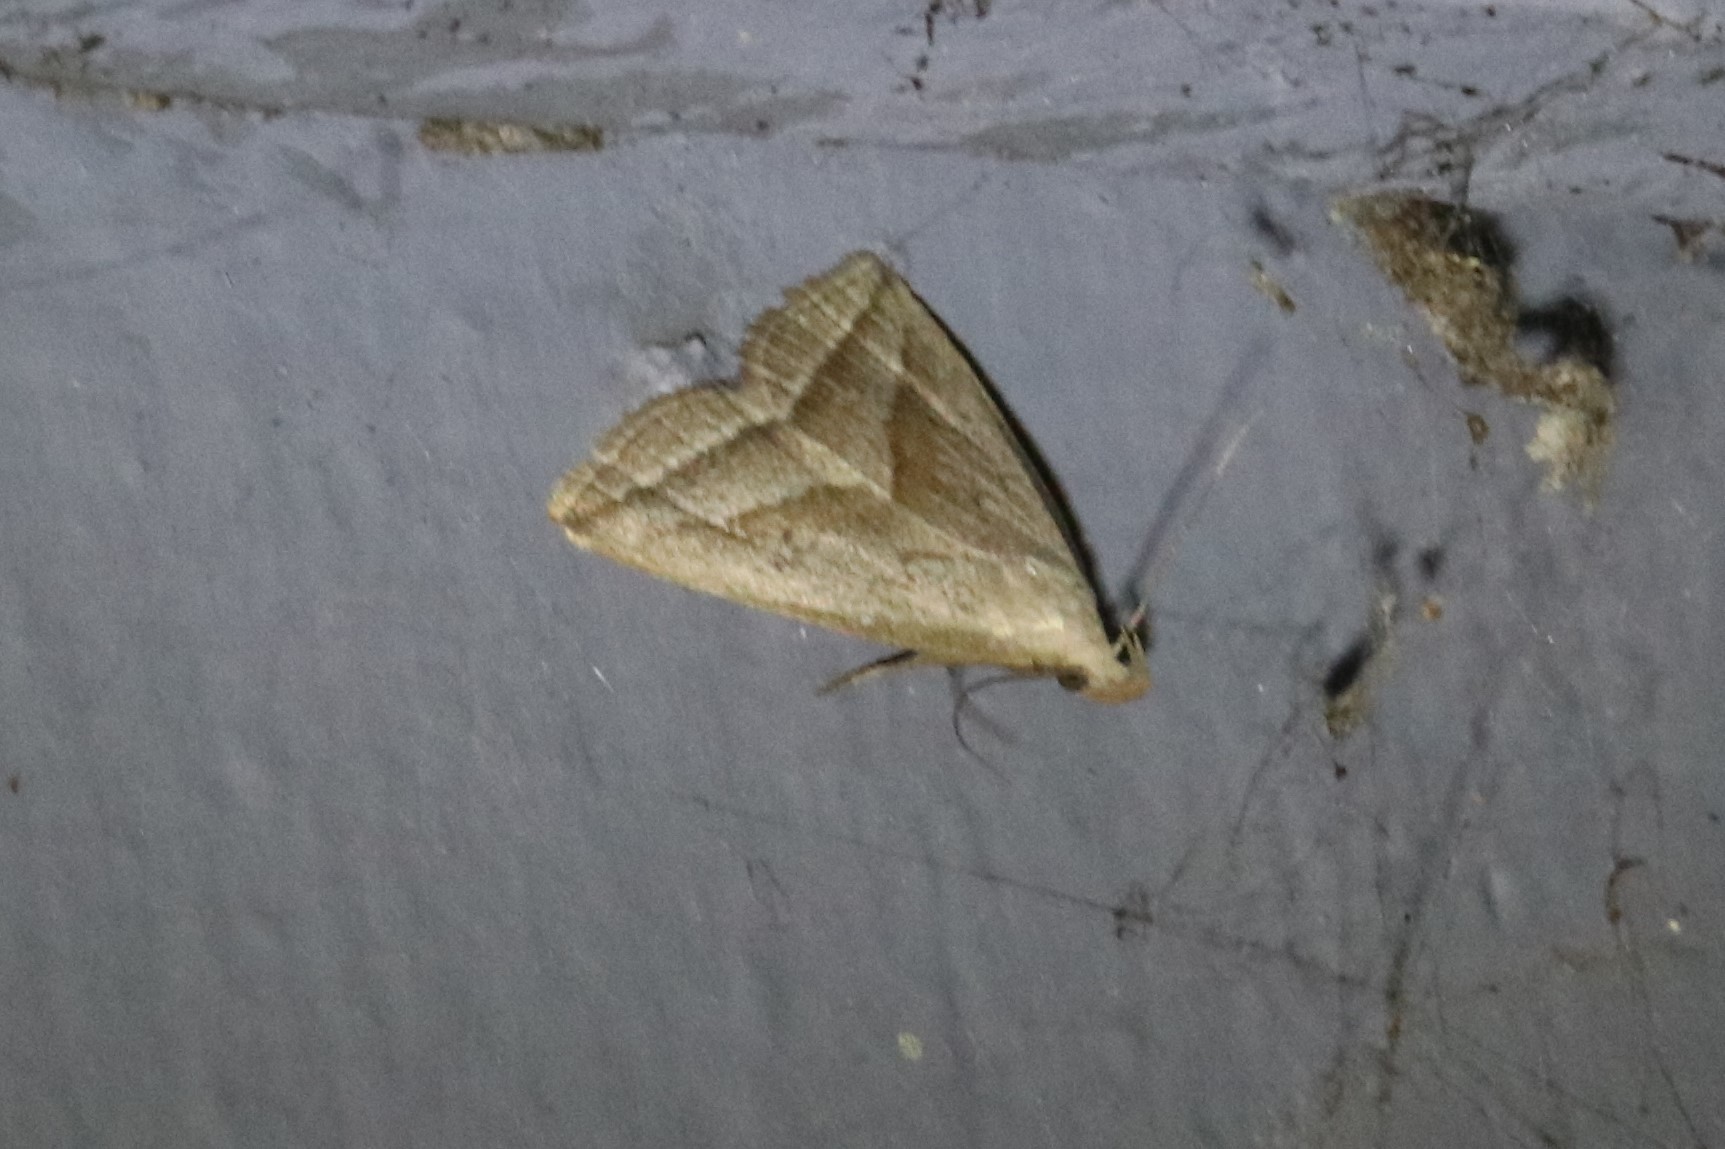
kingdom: Animalia
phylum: Arthropoda
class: Insecta
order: Lepidoptera
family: Erebidae
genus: Macrochilo
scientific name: Macrochilo absorptalis
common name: Slant-lined owlet
